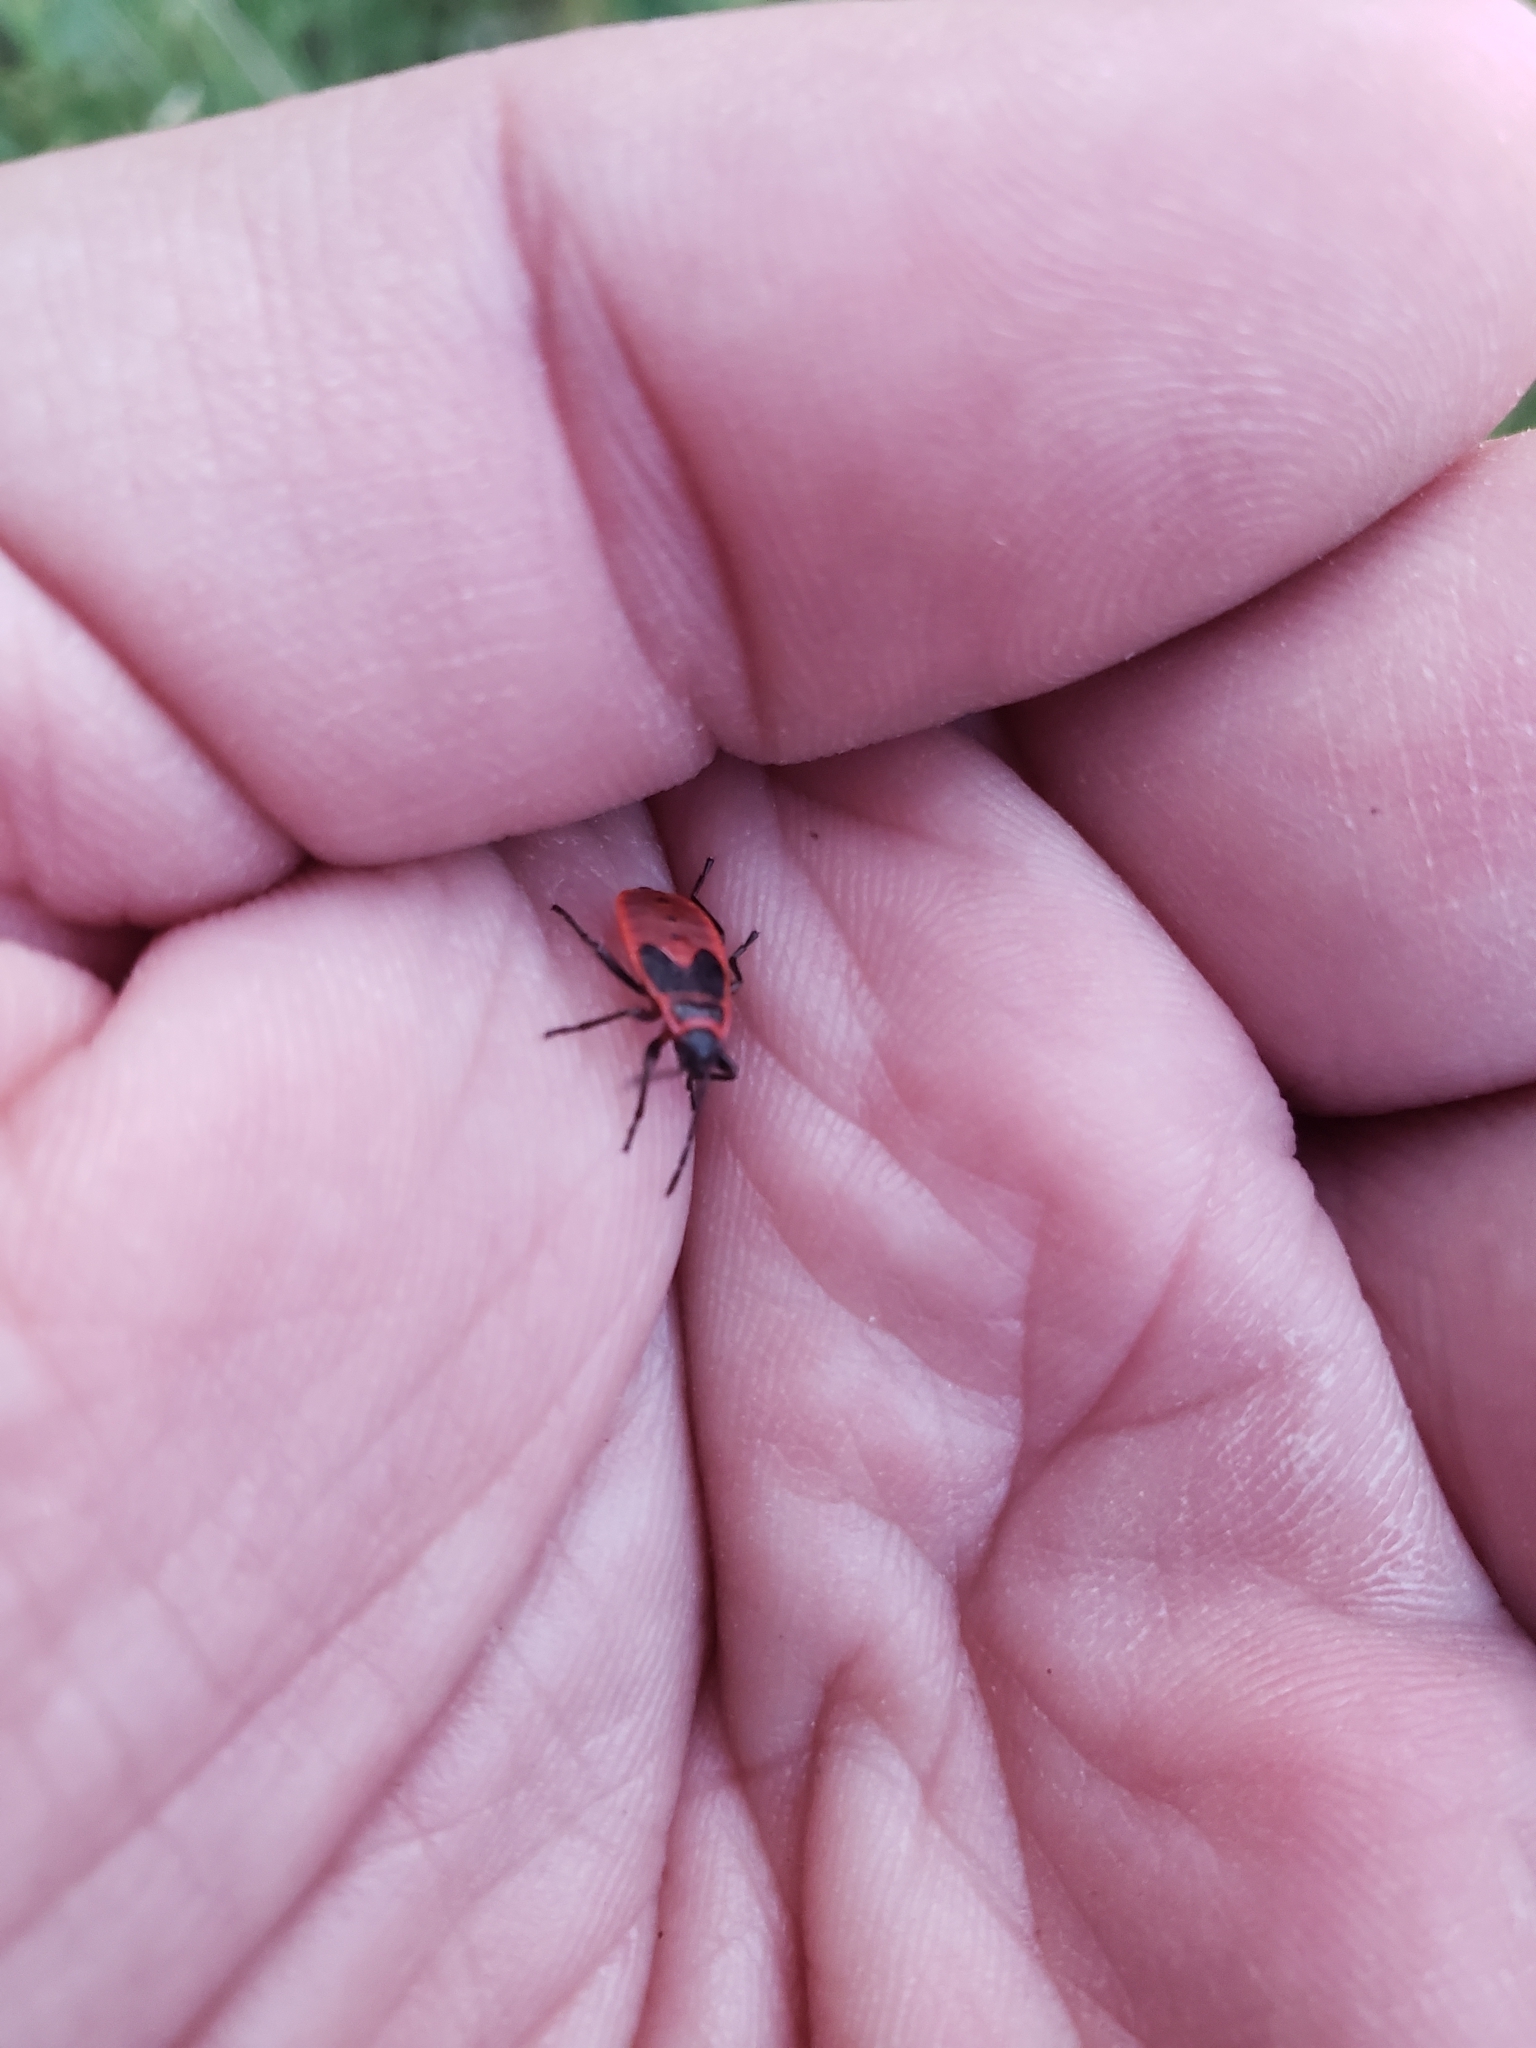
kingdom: Animalia
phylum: Arthropoda
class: Insecta
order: Hemiptera
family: Pyrrhocoridae
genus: Pyrrhocoris
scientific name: Pyrrhocoris apterus
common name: Firebug
